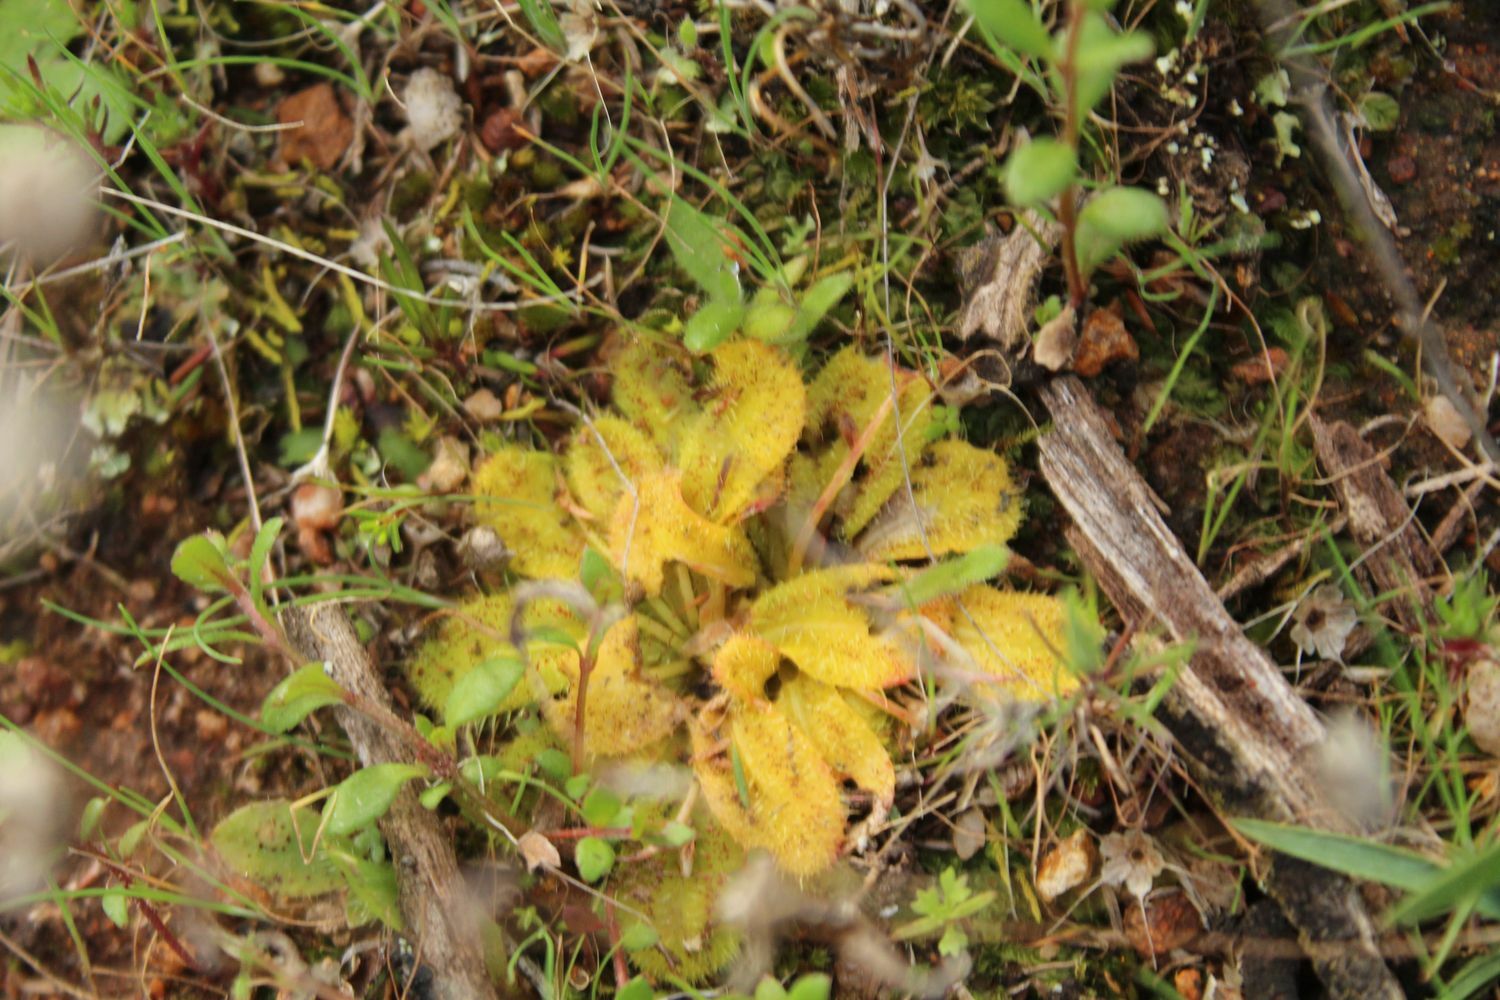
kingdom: Plantae
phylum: Tracheophyta
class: Magnoliopsida
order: Caryophyllales
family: Droseraceae
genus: Drosera
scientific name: Drosera bulbosa
